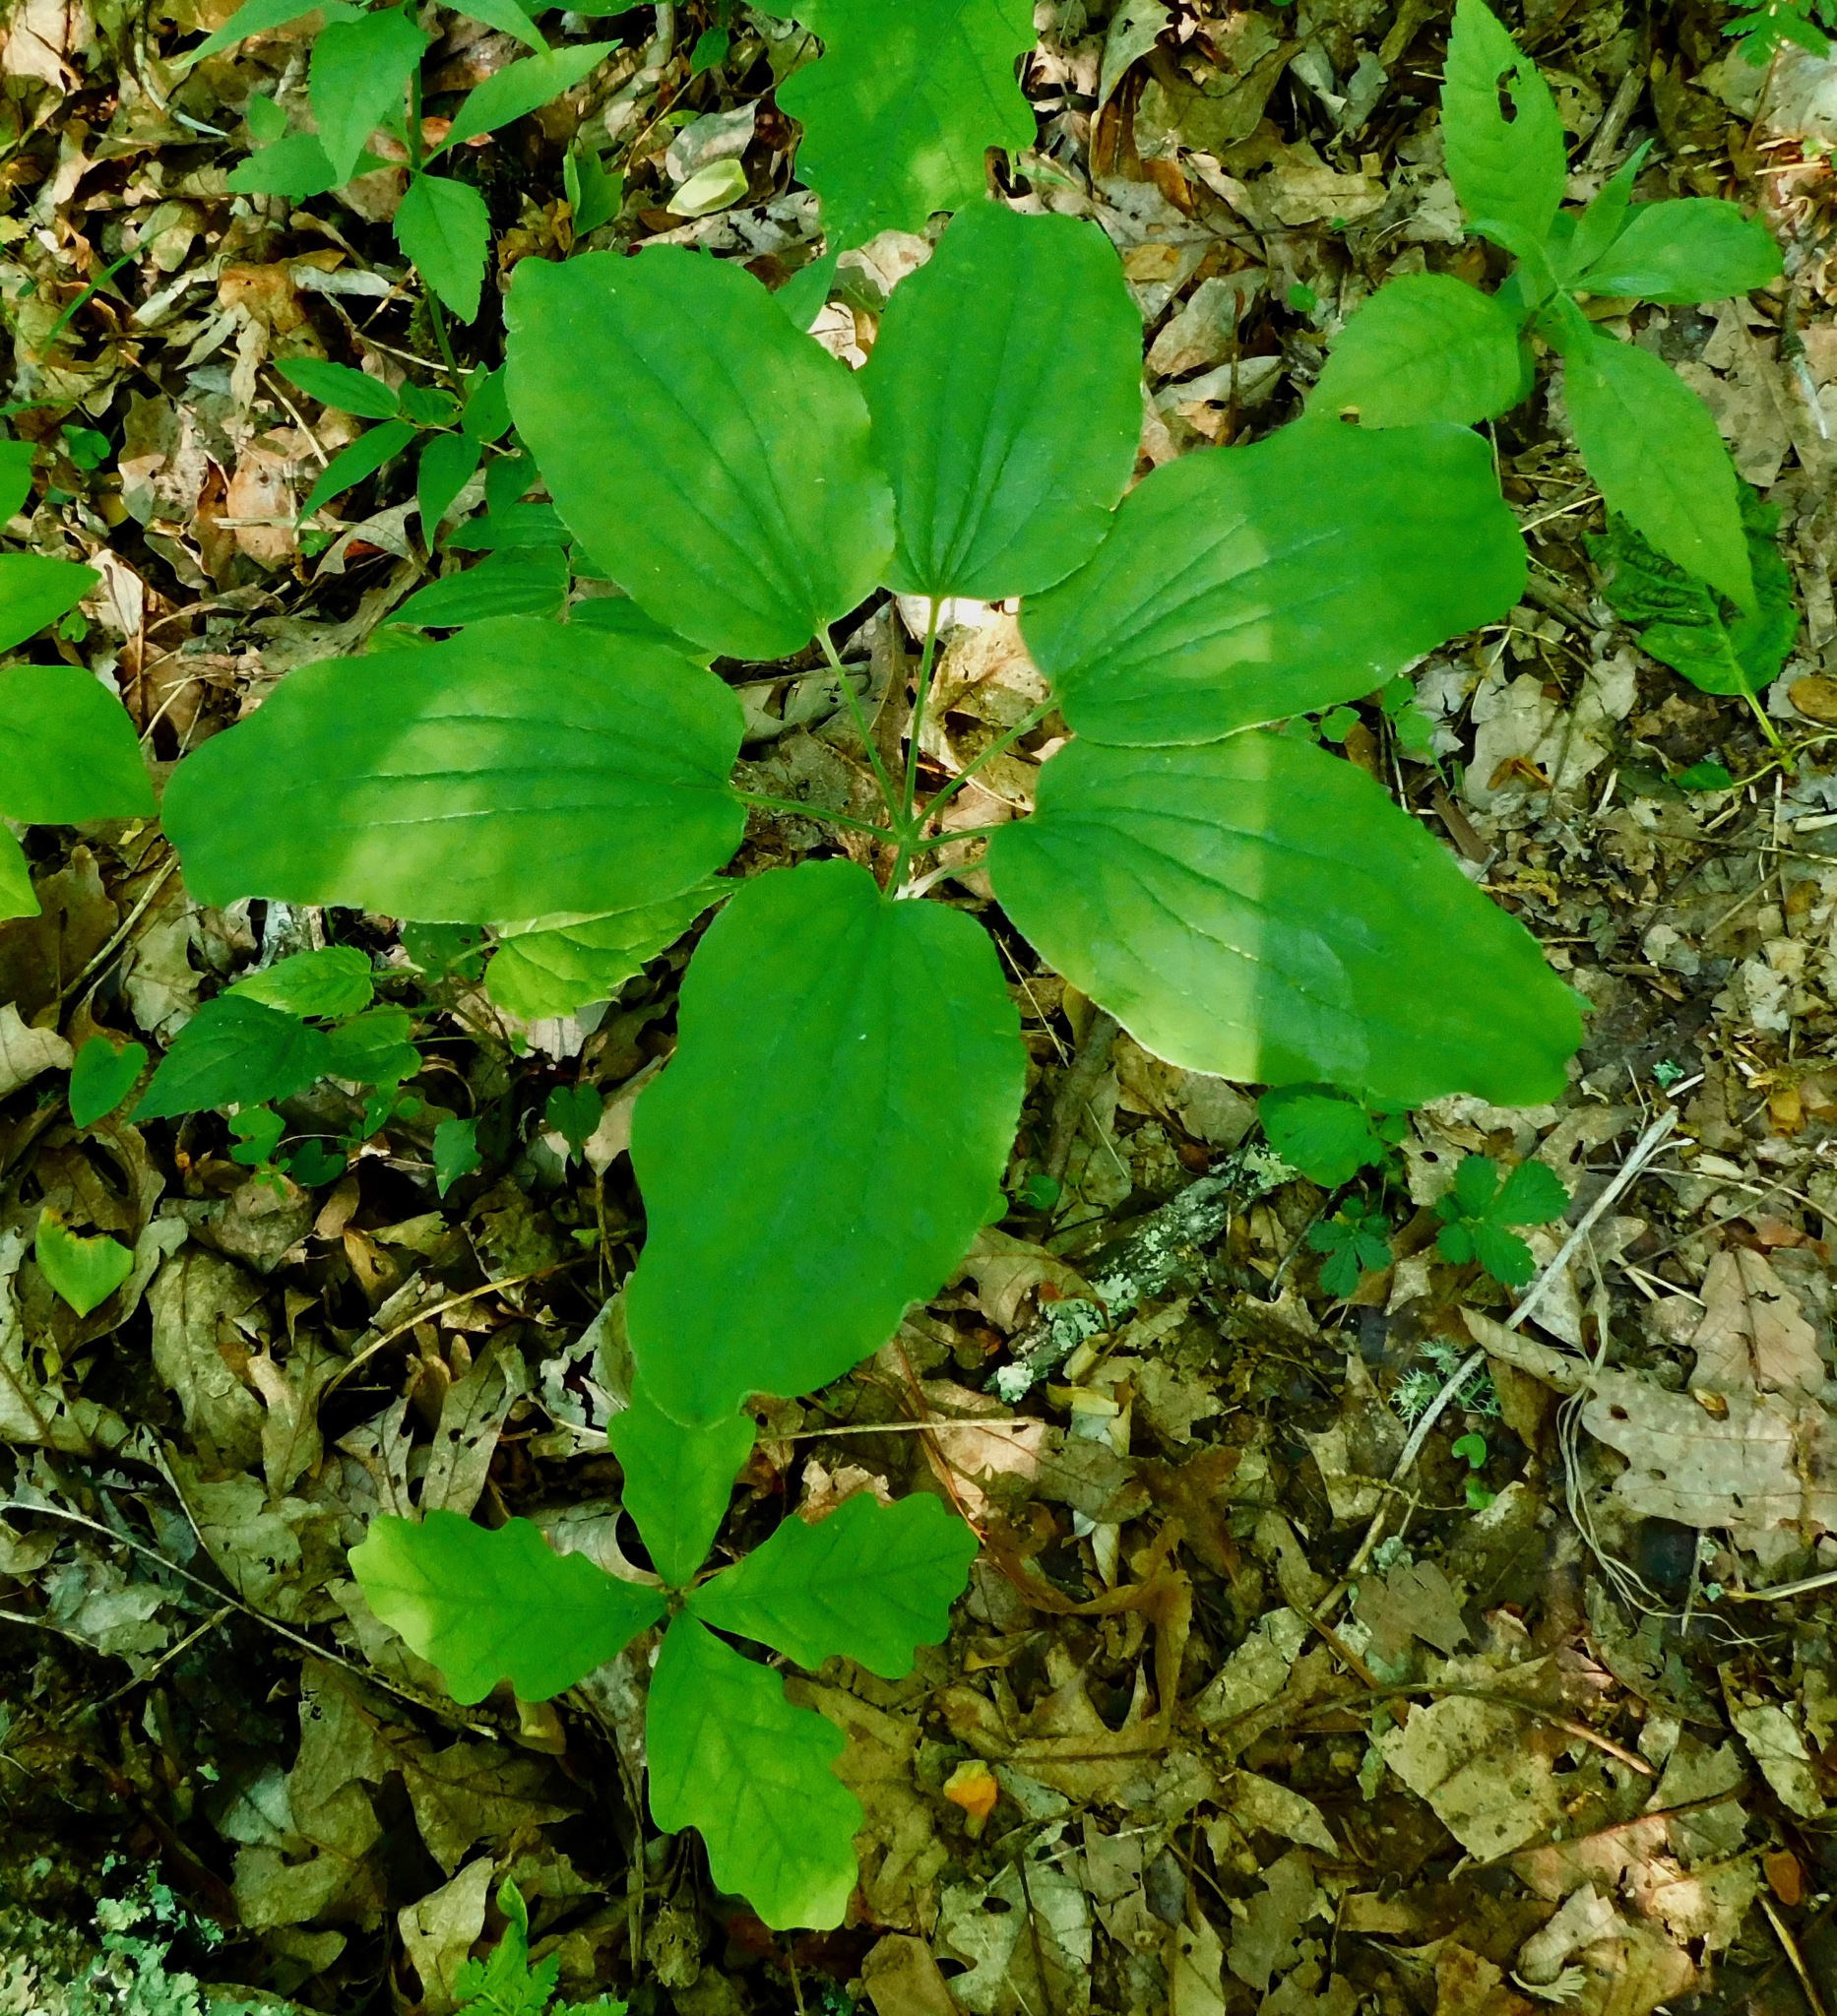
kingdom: Plantae
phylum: Tracheophyta
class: Liliopsida
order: Liliales
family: Smilacaceae
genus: Smilax
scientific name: Smilax hugeri
